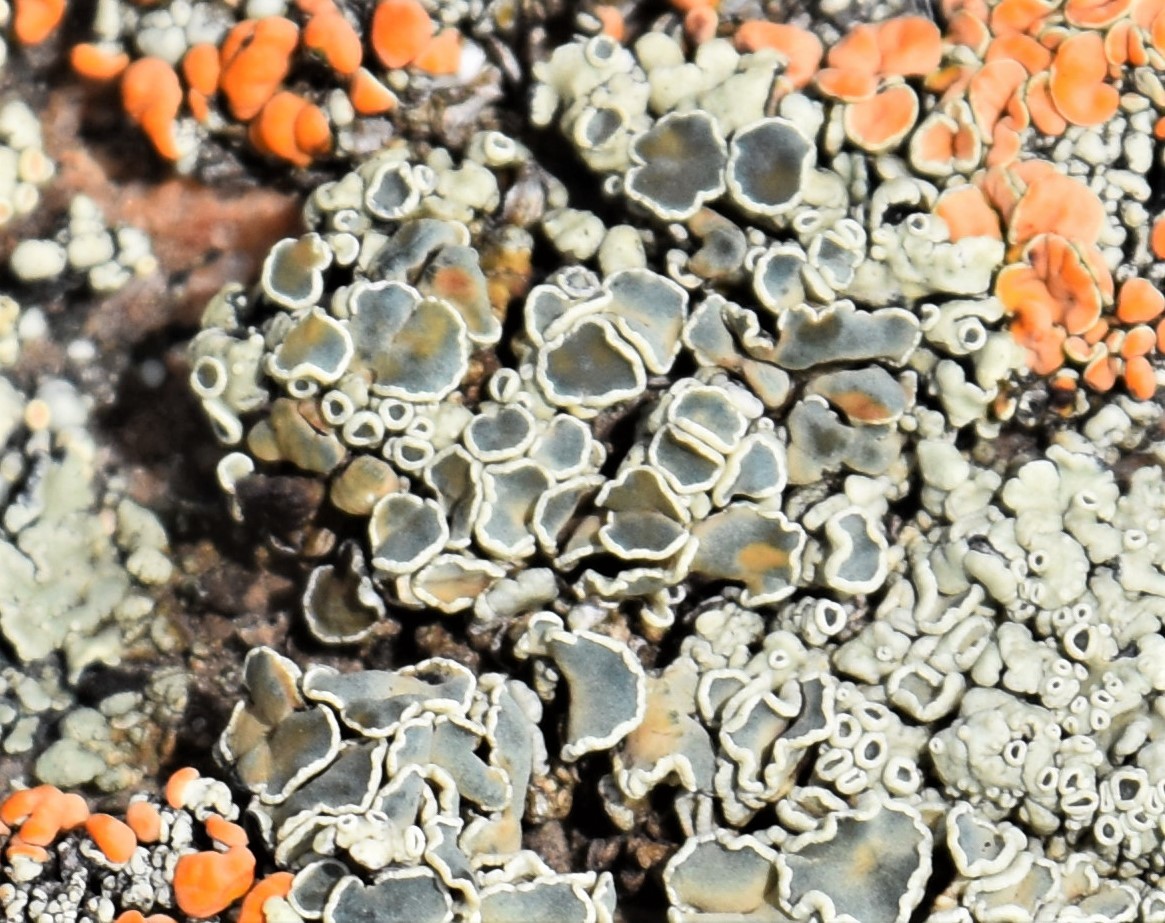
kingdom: Fungi
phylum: Ascomycota
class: Lecanoromycetes
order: Lecanorales
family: Lecanoraceae
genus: Rhizoplaca
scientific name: Rhizoplaca melanophthalma
